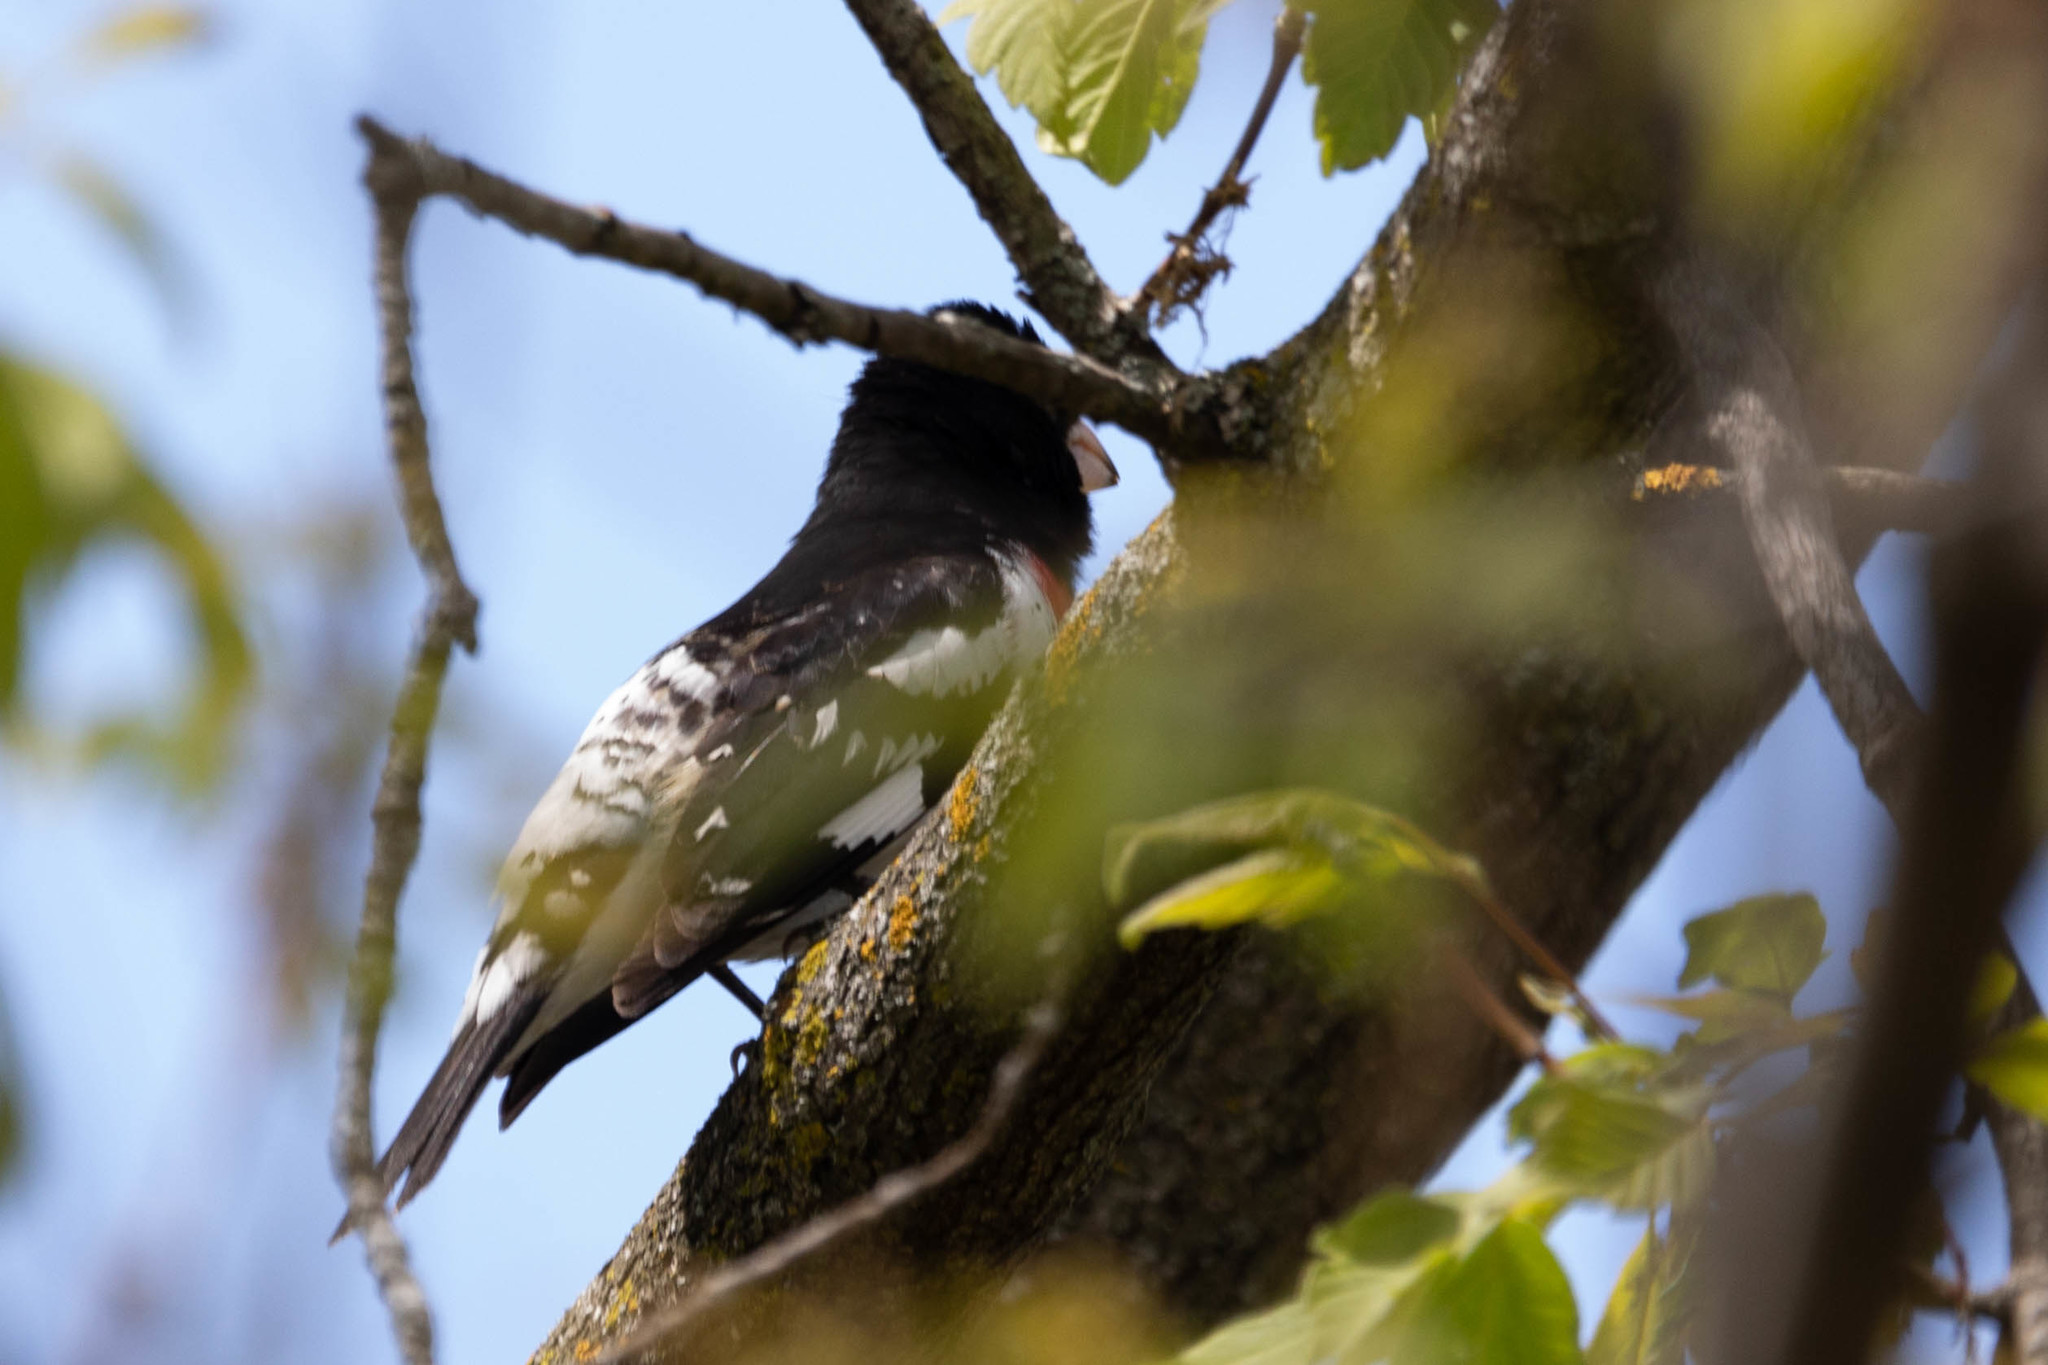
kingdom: Animalia
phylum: Chordata
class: Aves
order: Passeriformes
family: Cardinalidae
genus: Pheucticus
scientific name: Pheucticus ludovicianus
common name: Rose-breasted grosbeak
